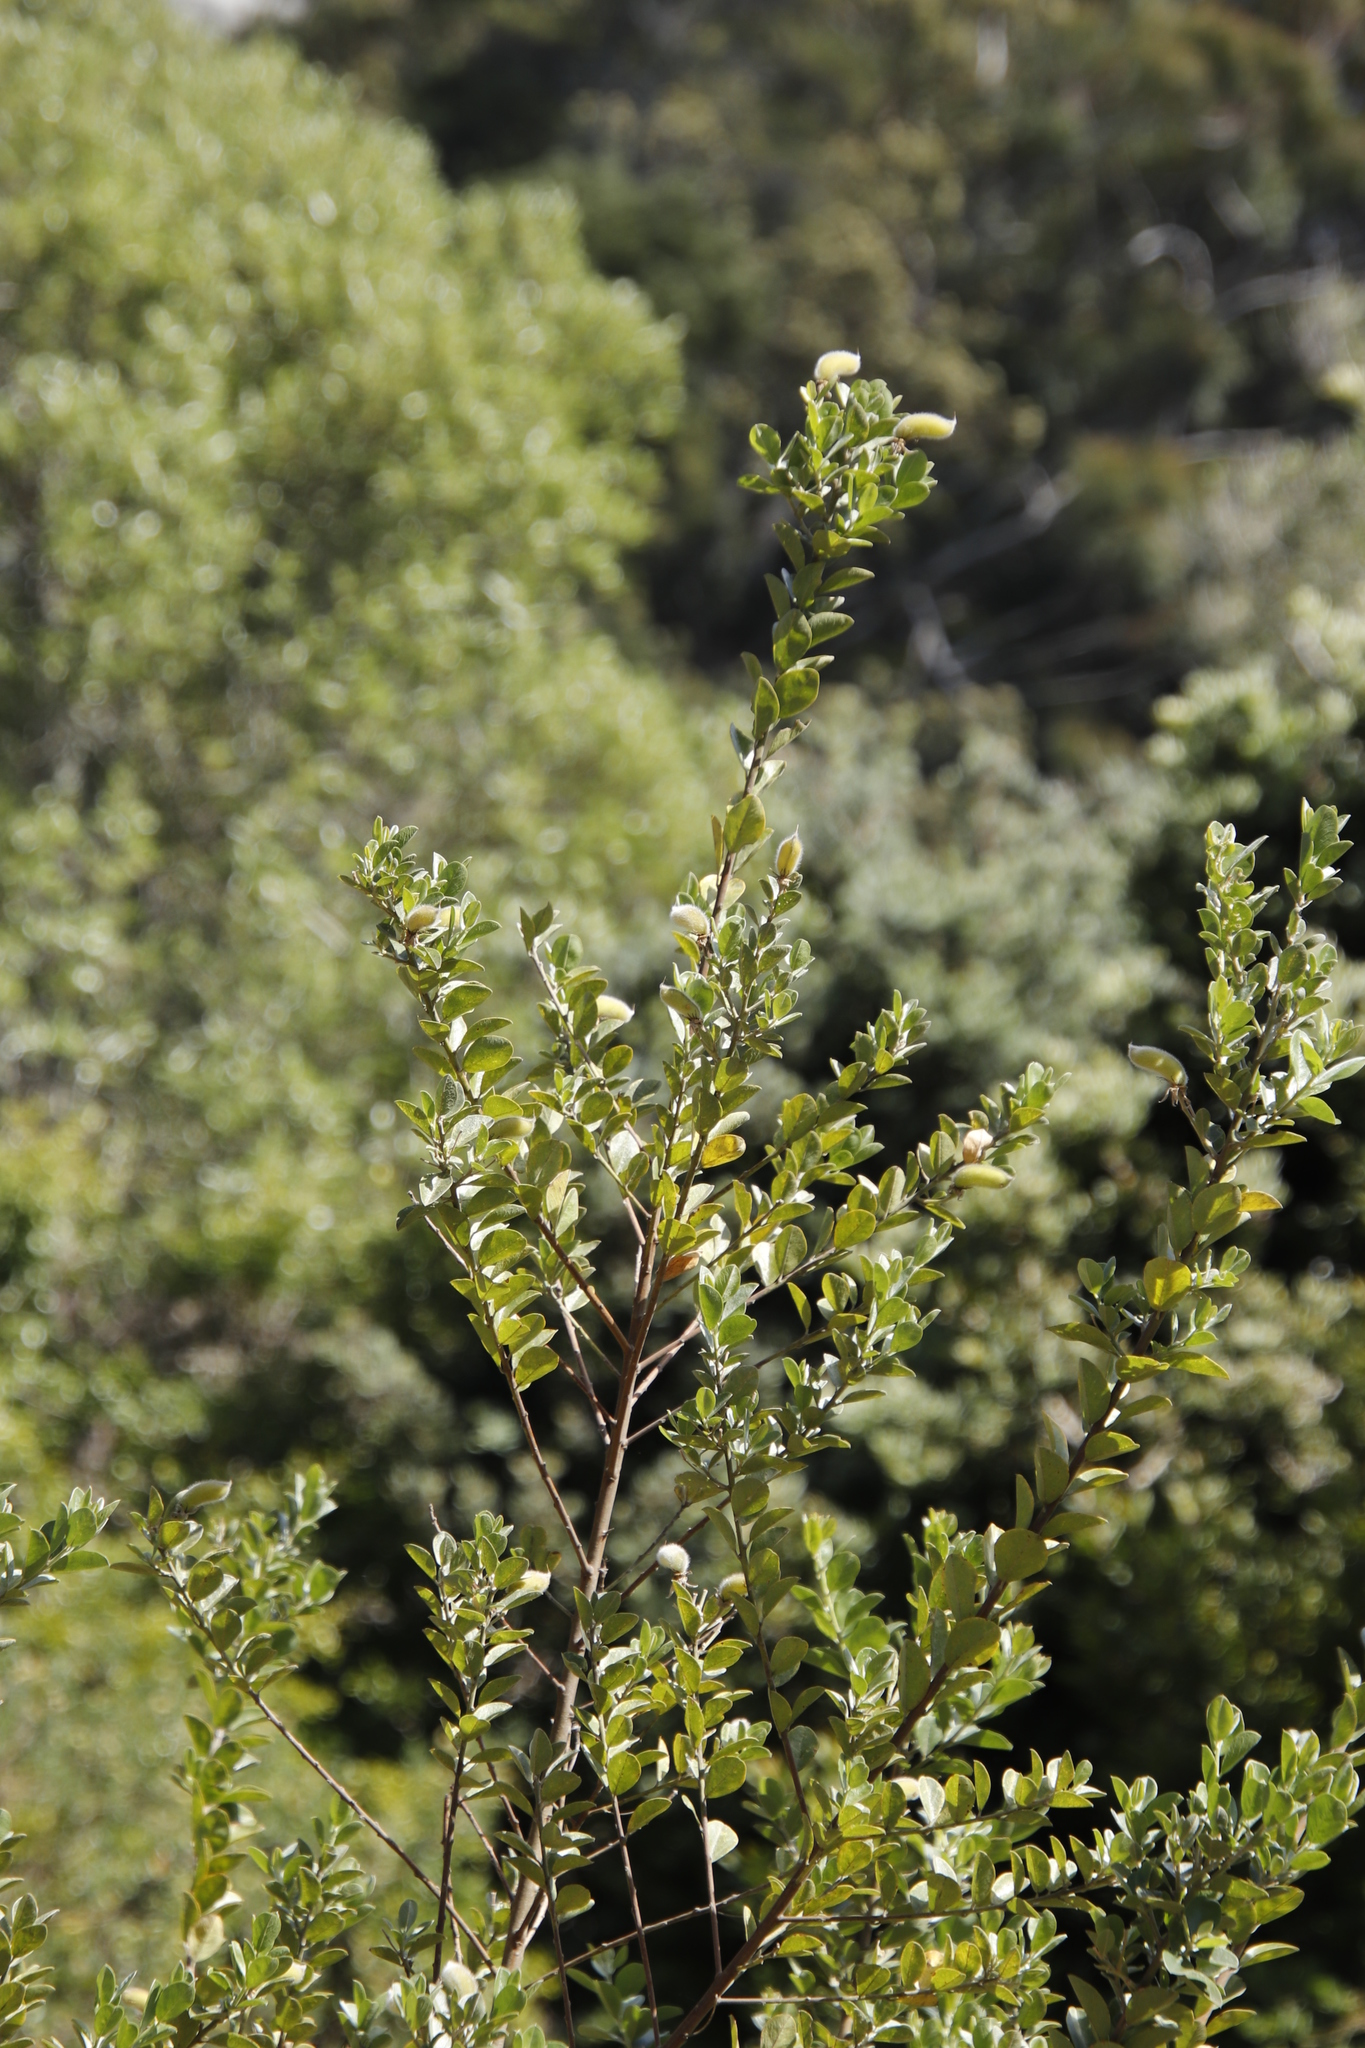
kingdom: Plantae
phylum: Tracheophyta
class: Magnoliopsida
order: Fabales
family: Fabaceae
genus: Podalyria
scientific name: Podalyria calyptrata
